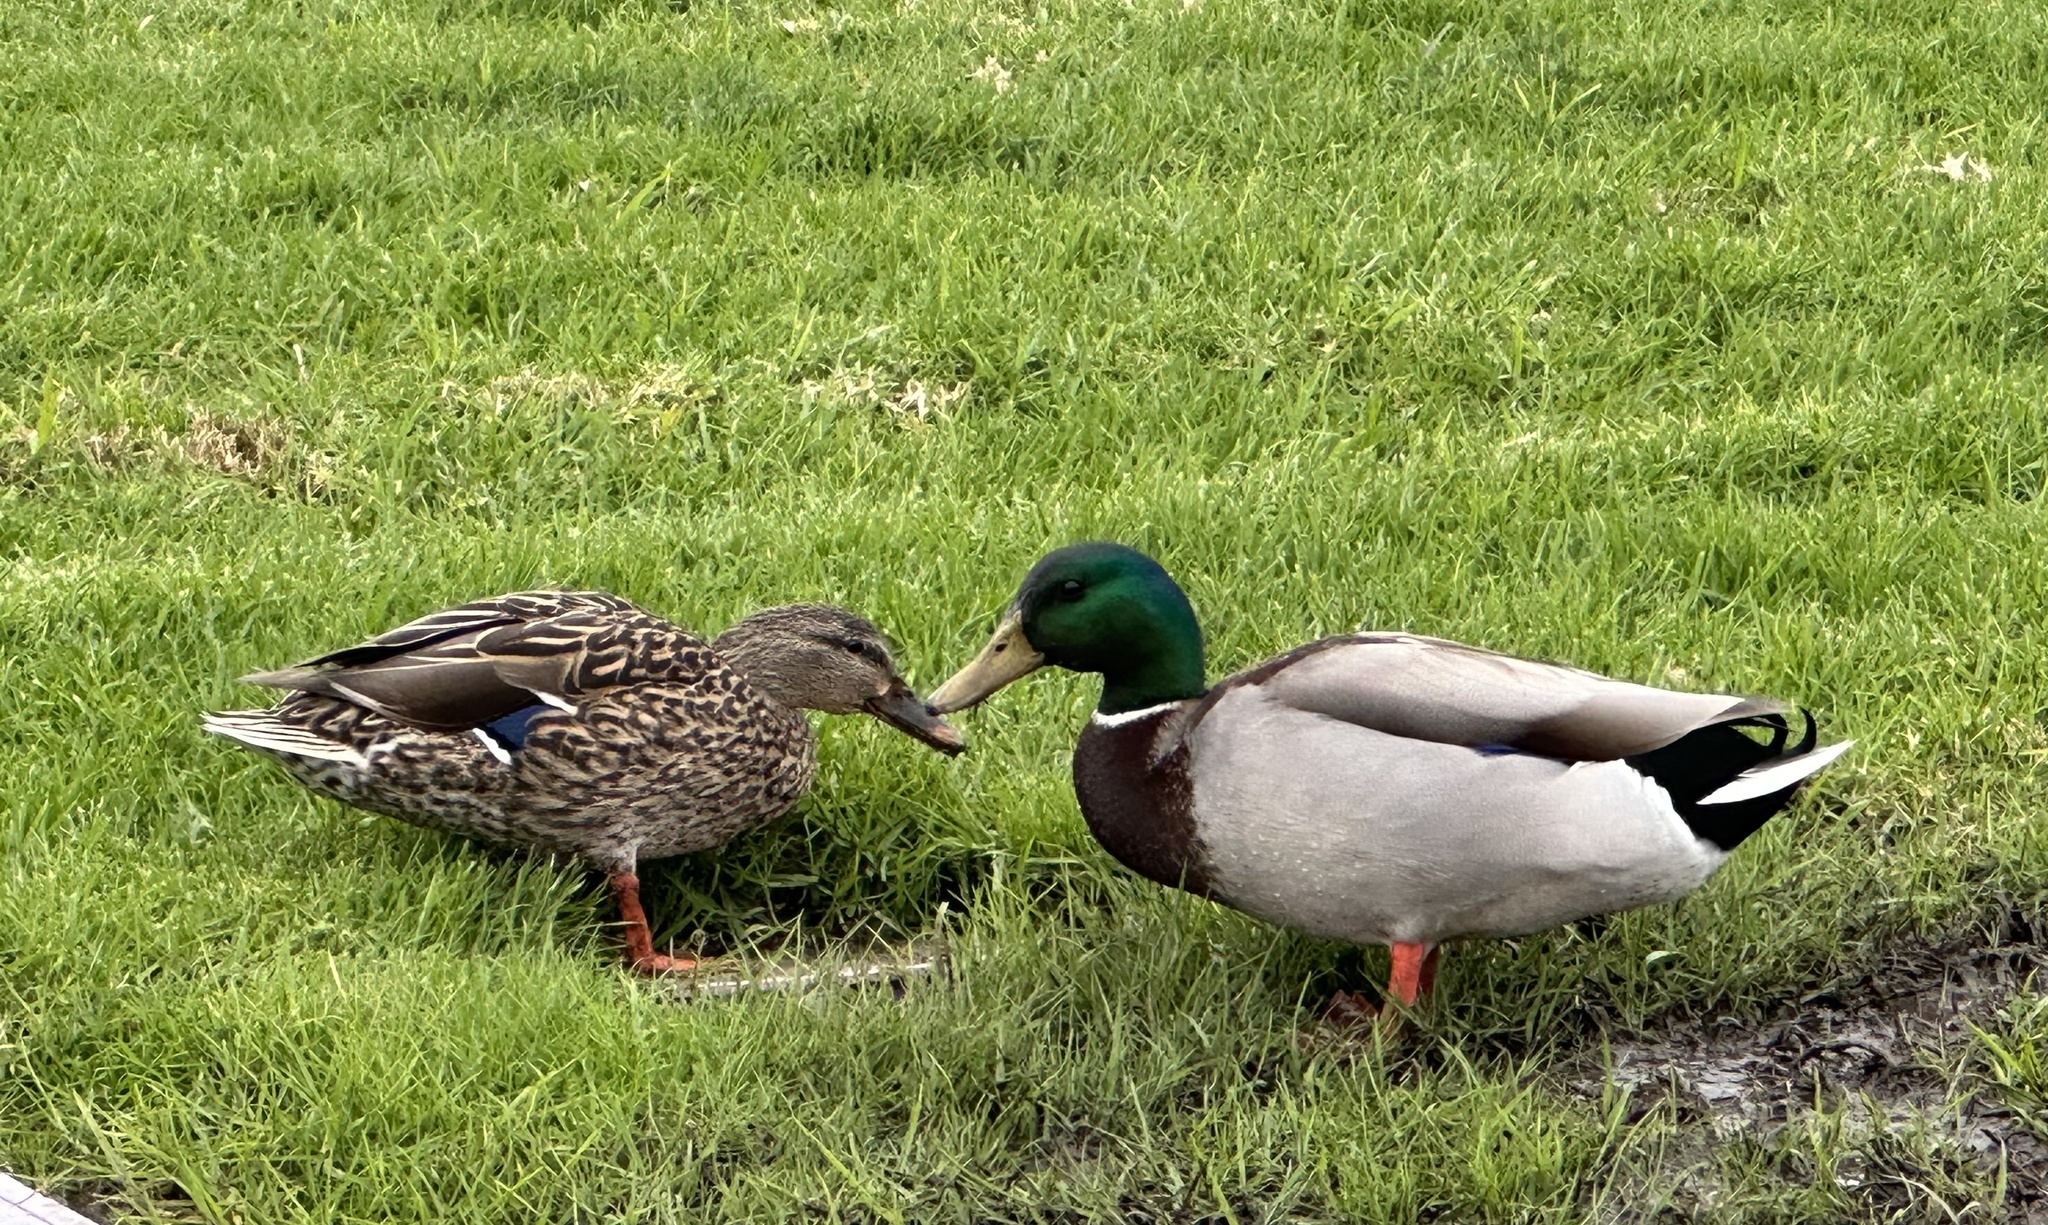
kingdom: Animalia
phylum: Chordata
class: Aves
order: Anseriformes
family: Anatidae
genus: Anas
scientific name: Anas platyrhynchos
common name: Mallard
